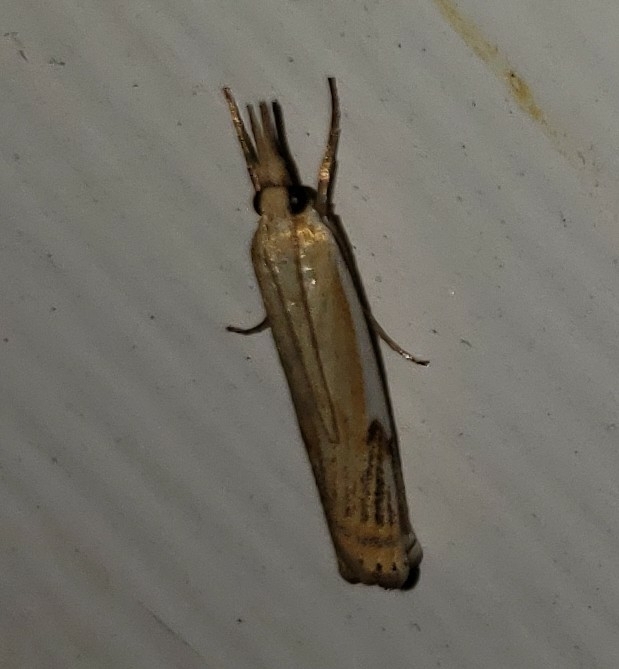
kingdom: Animalia
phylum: Arthropoda
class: Insecta
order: Lepidoptera
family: Crambidae
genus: Crambus
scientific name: Crambus agitatellus
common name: Double-banded grass-veneer
